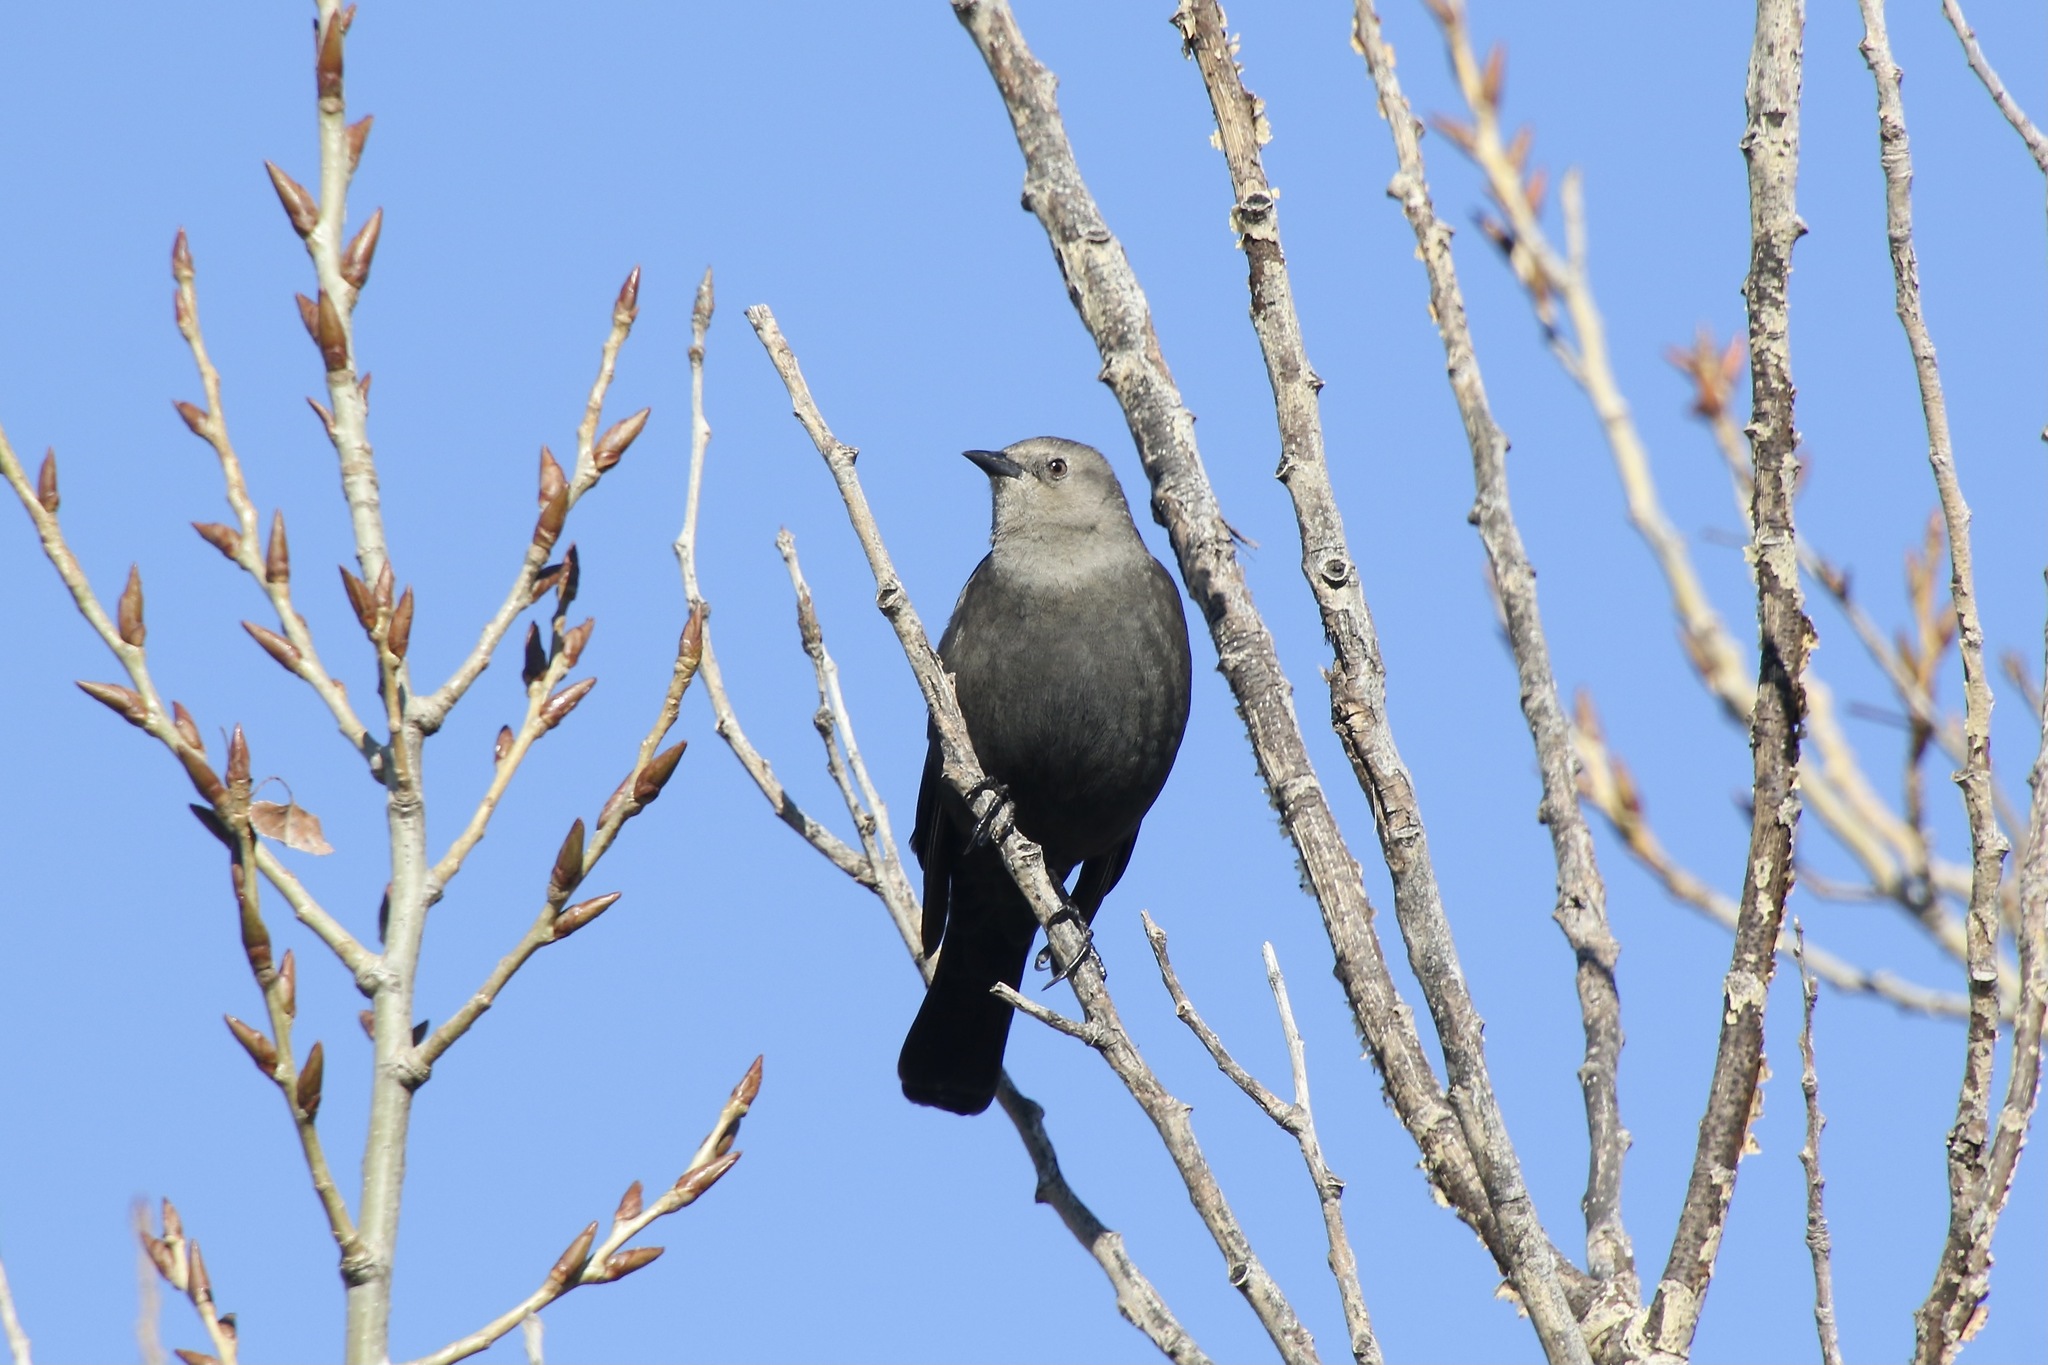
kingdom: Animalia
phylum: Chordata
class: Aves
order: Passeriformes
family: Icteridae
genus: Euphagus
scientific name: Euphagus cyanocephalus
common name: Brewer's blackbird
